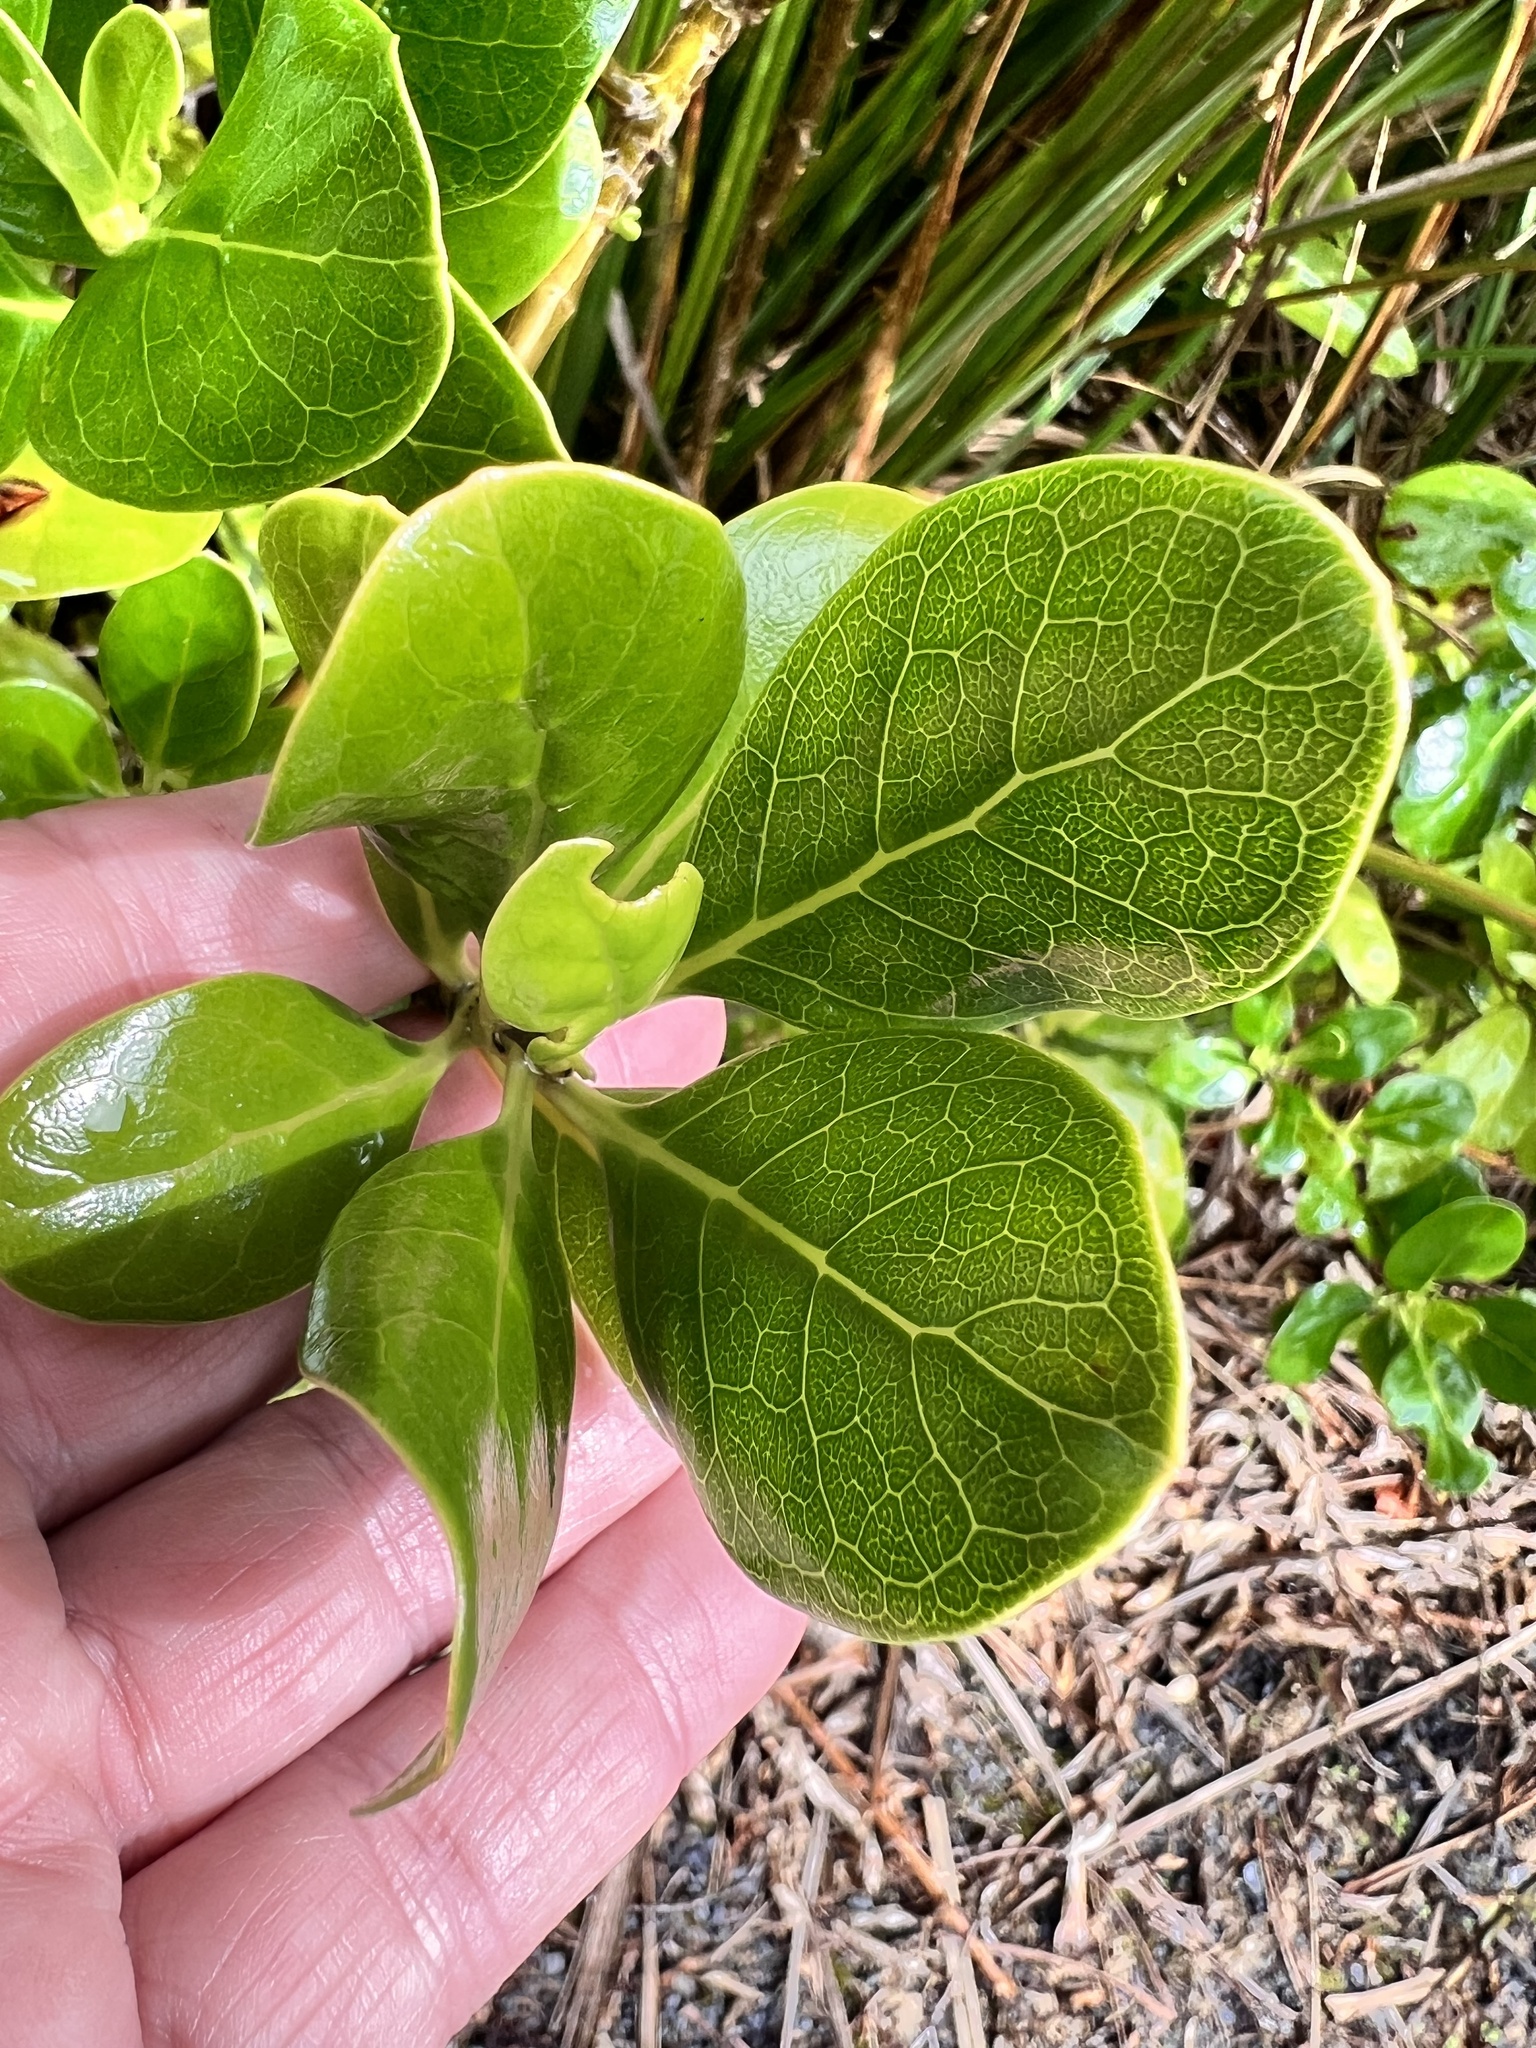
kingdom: Plantae
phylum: Tracheophyta
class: Magnoliopsida
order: Gentianales
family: Rubiaceae
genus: Coprosma
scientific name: Coprosma repens
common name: Tree bedstraw
